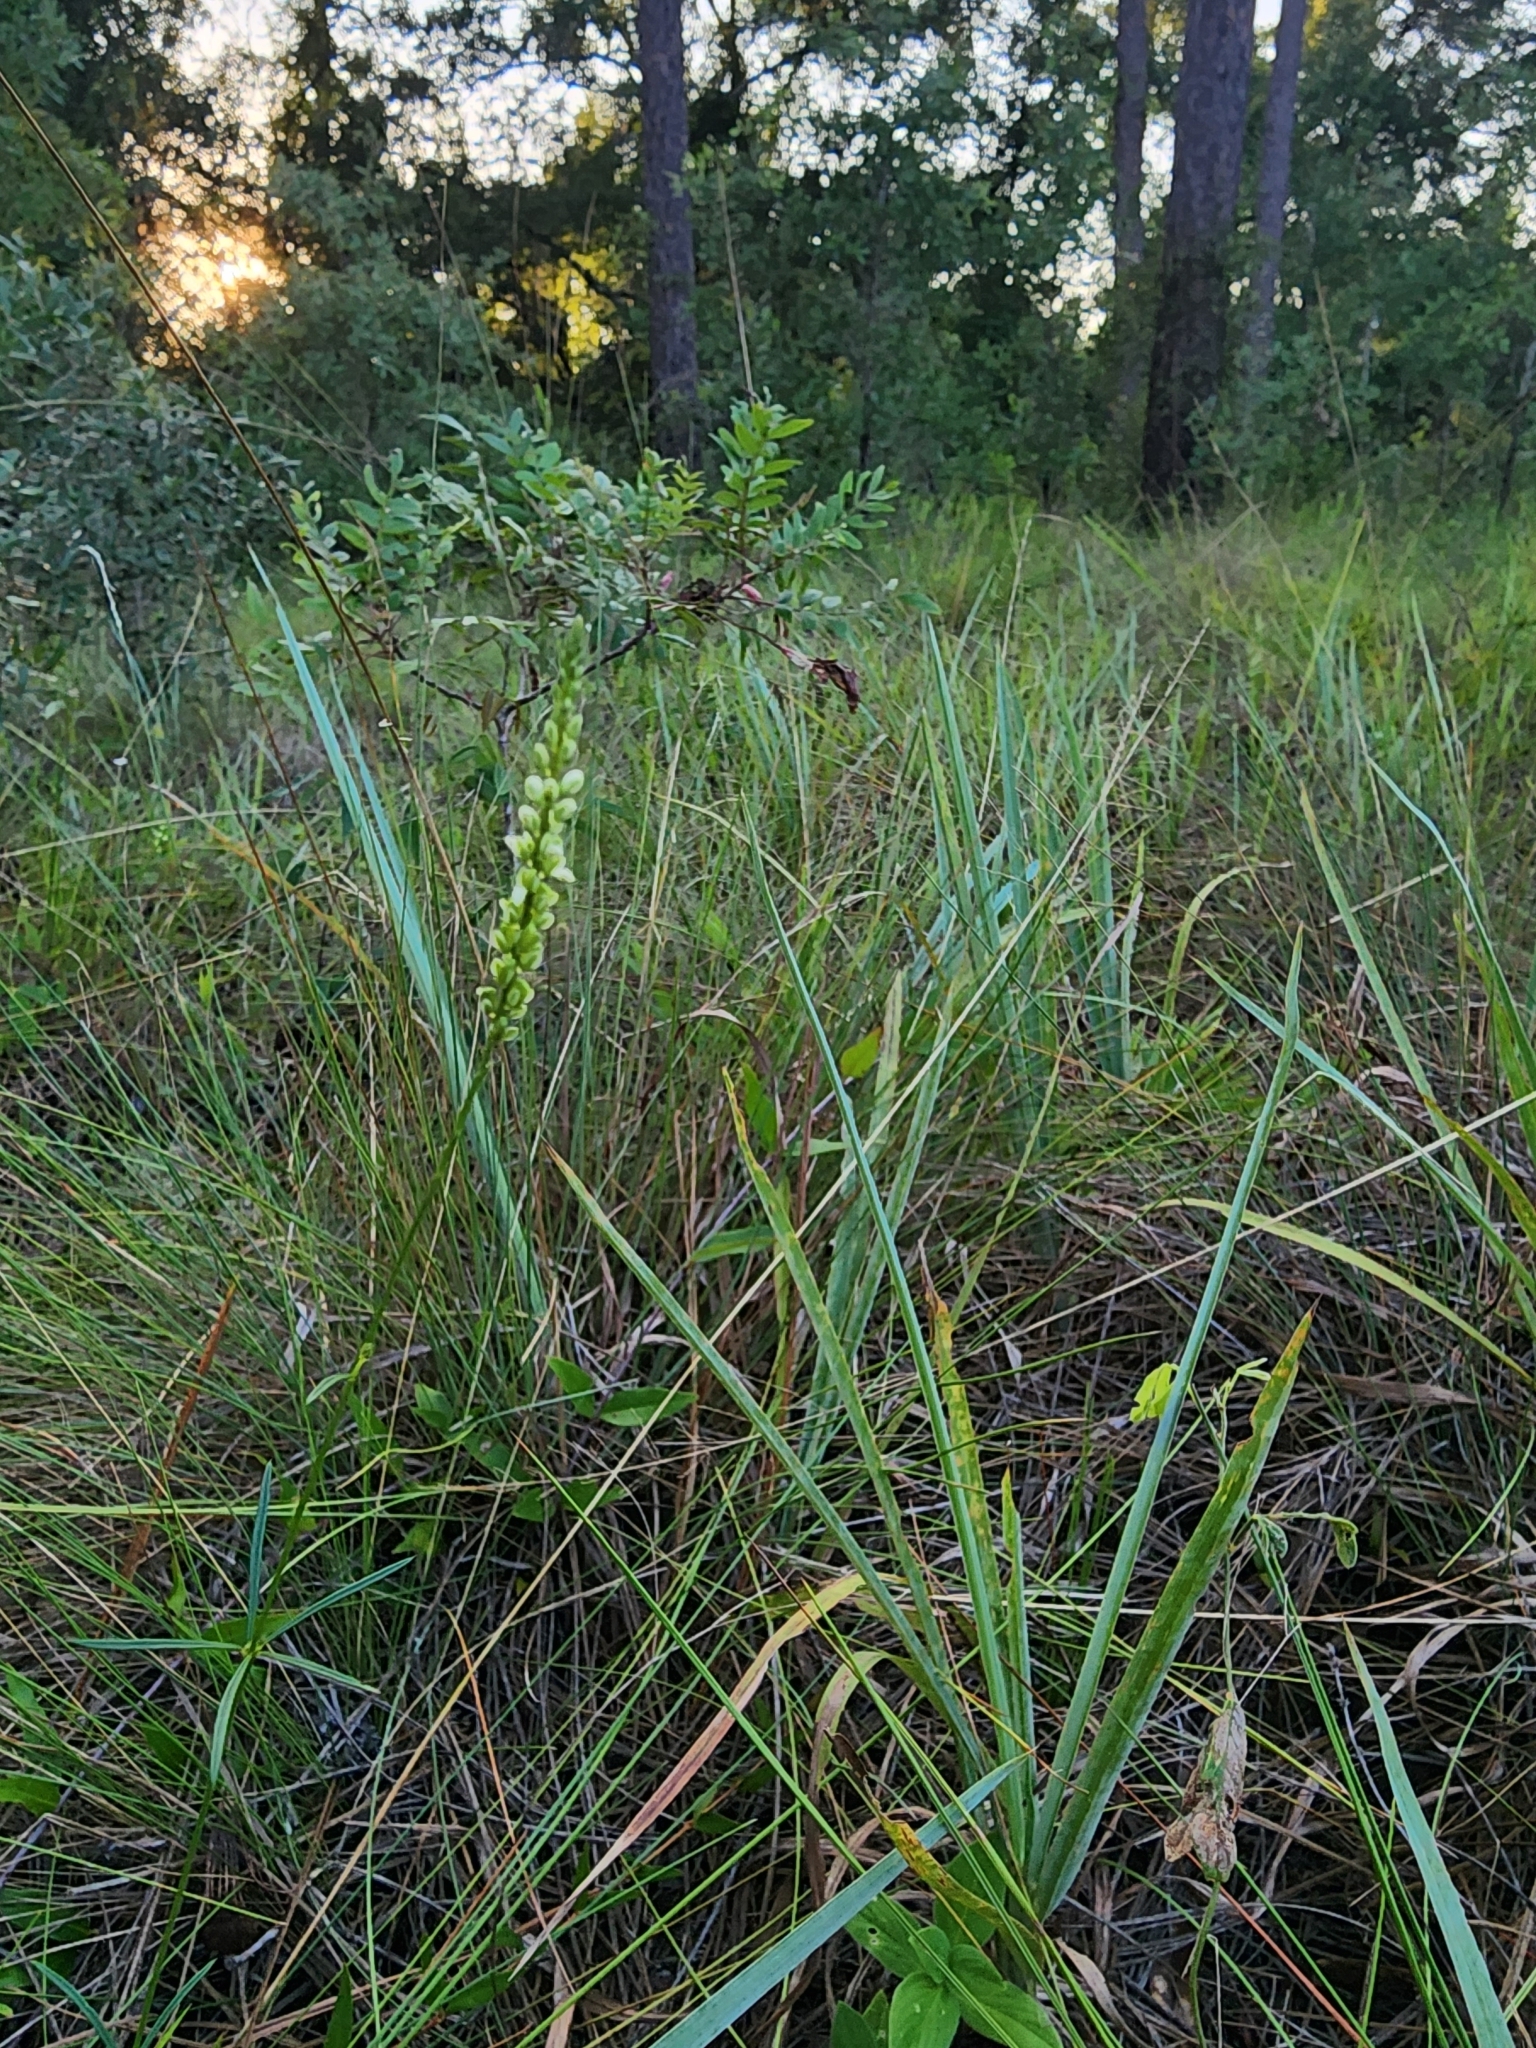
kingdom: Plantae
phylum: Tracheophyta
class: Magnoliopsida
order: Fabales
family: Polygalaceae
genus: Polygala
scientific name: Polygala leptostachys
